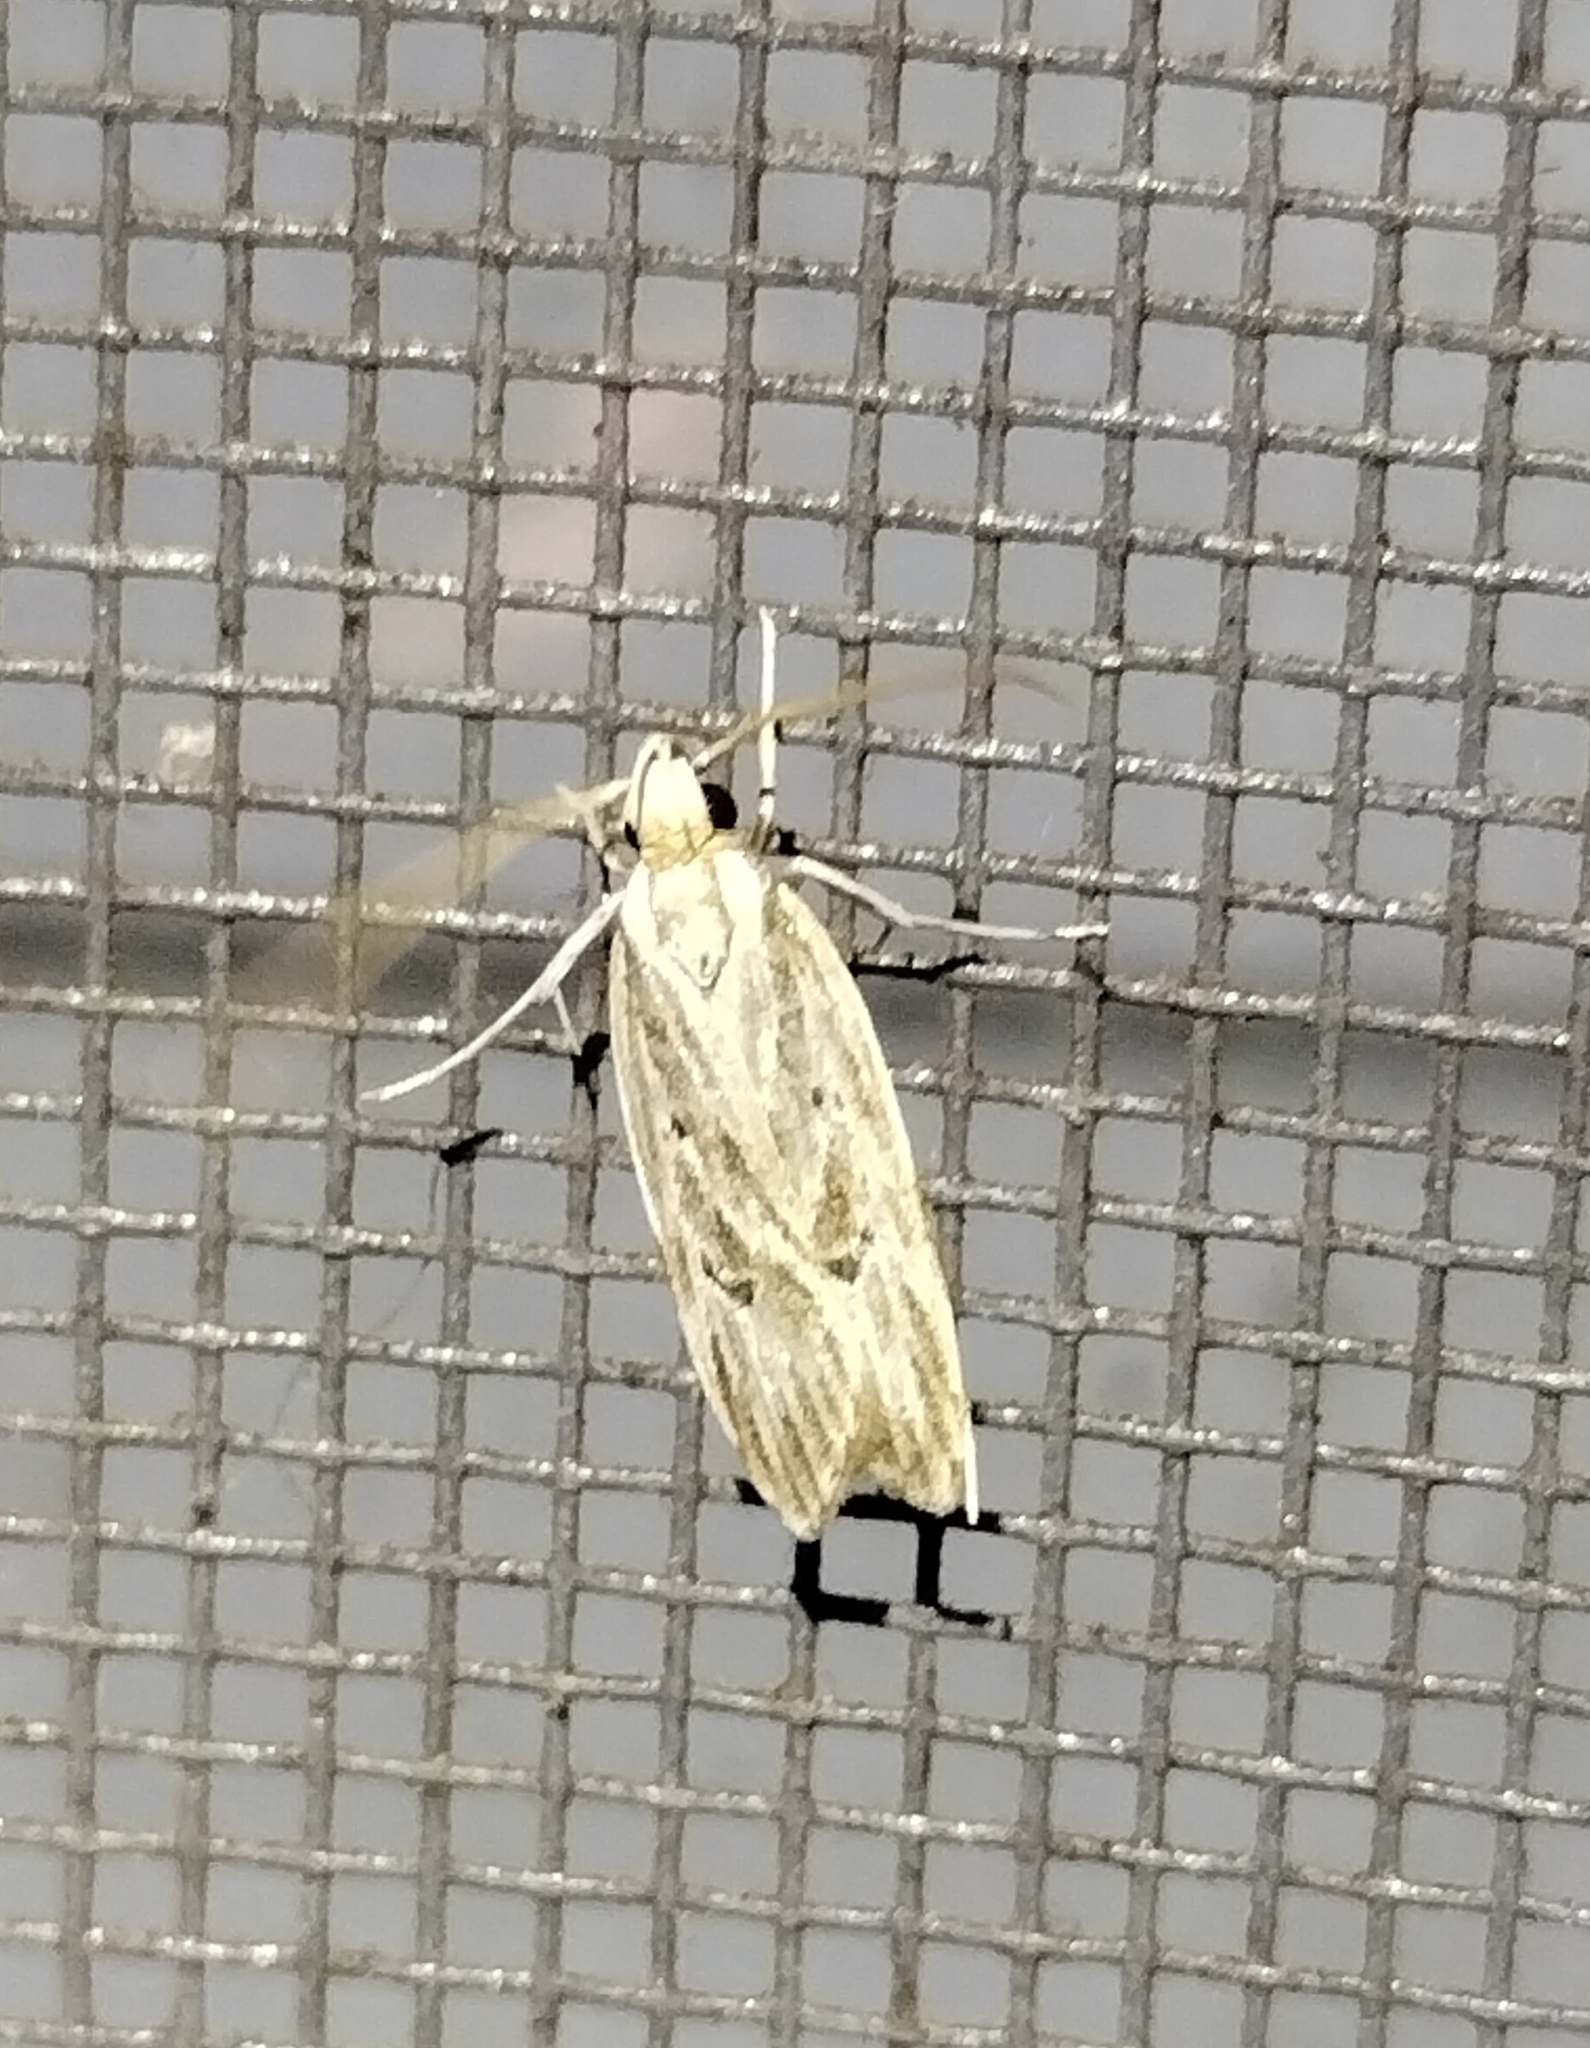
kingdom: Animalia
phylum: Arthropoda
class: Insecta
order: Lepidoptera
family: Depressariidae
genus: Eupragia
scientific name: Eupragia hospita
